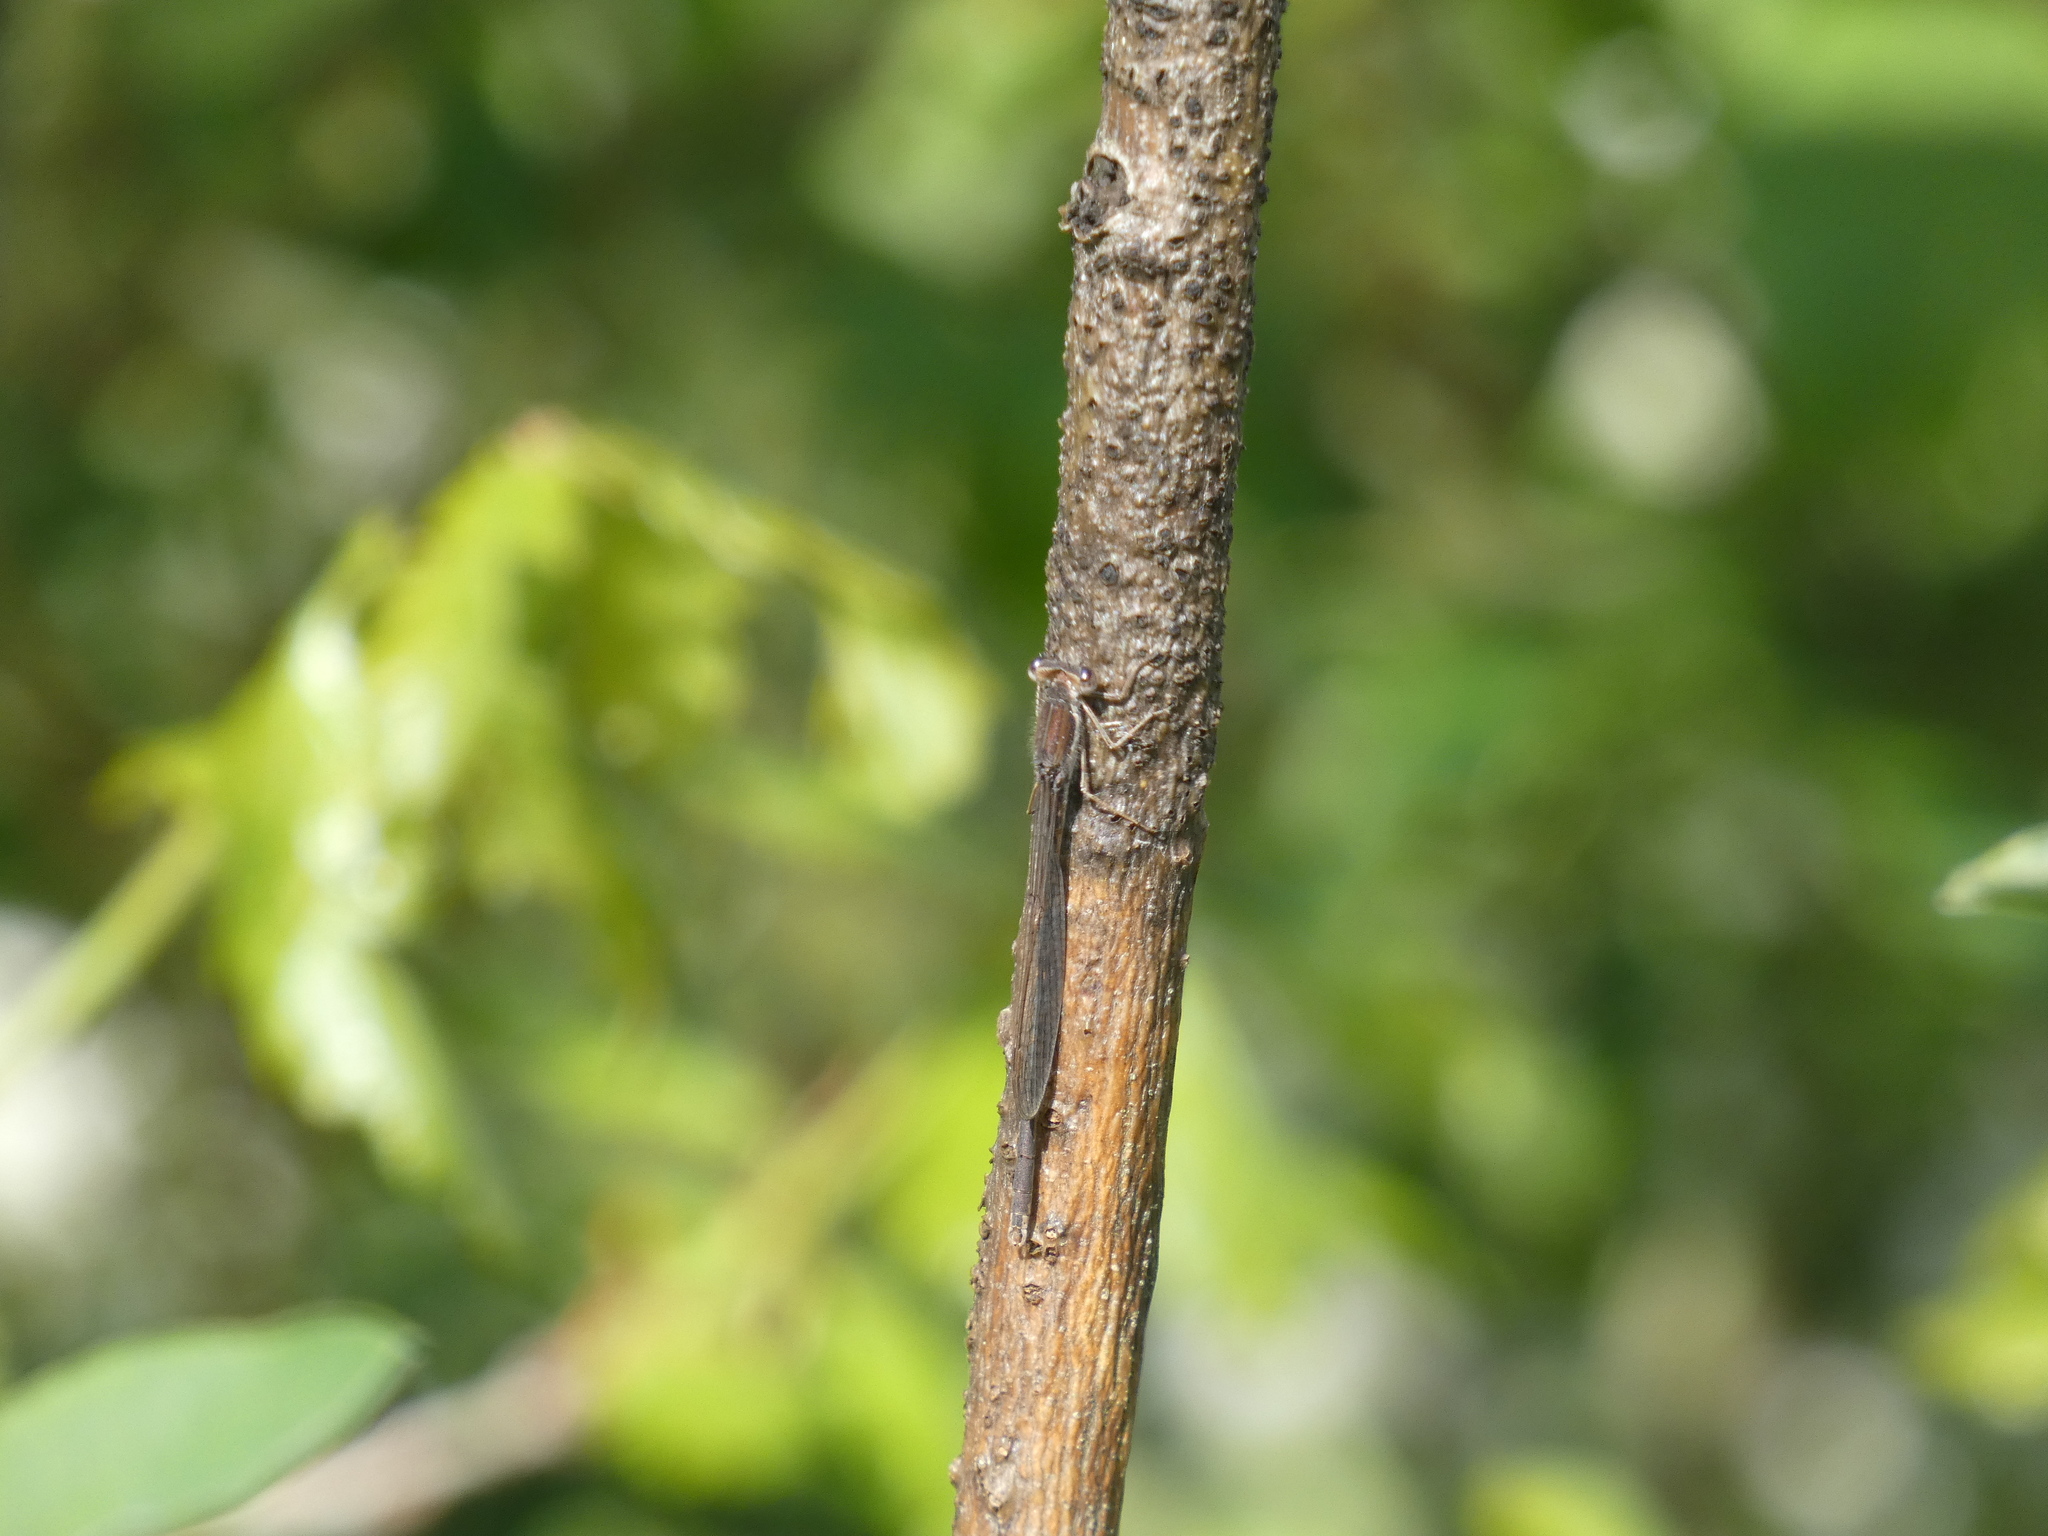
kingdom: Animalia
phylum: Arthropoda
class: Insecta
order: Odonata
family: Lestidae
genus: Sympecma
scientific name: Sympecma fusca
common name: Common winter damsel
